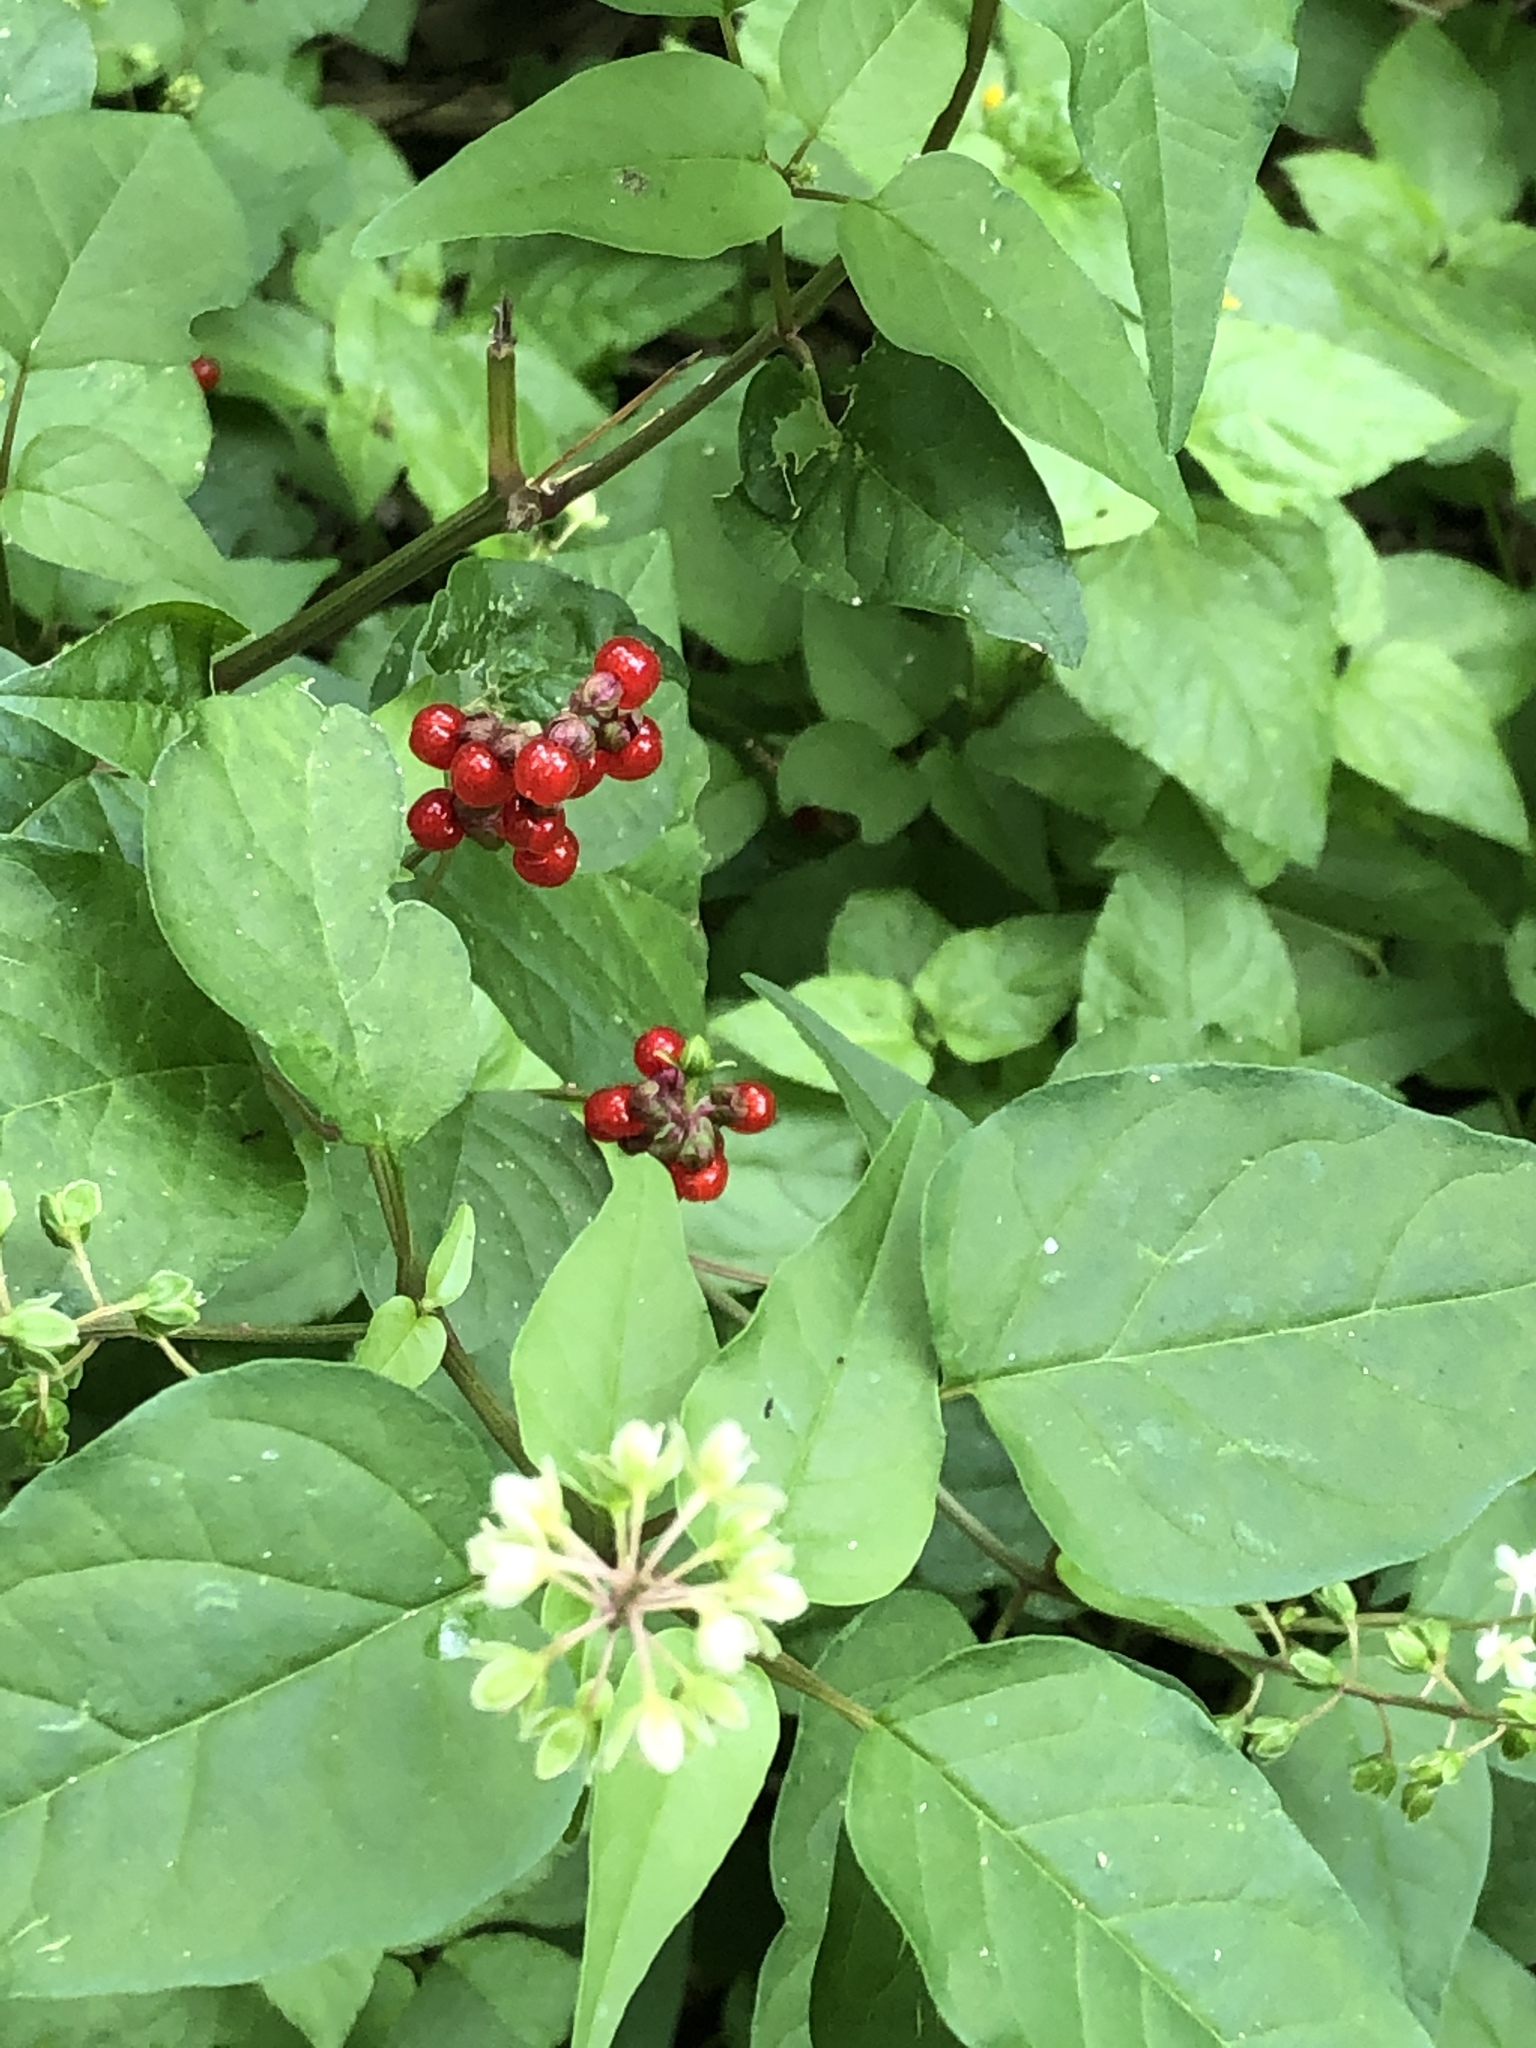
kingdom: Plantae
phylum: Tracheophyta
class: Magnoliopsida
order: Caryophyllales
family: Phytolaccaceae
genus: Rivina
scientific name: Rivina humilis
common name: Rougeplant
